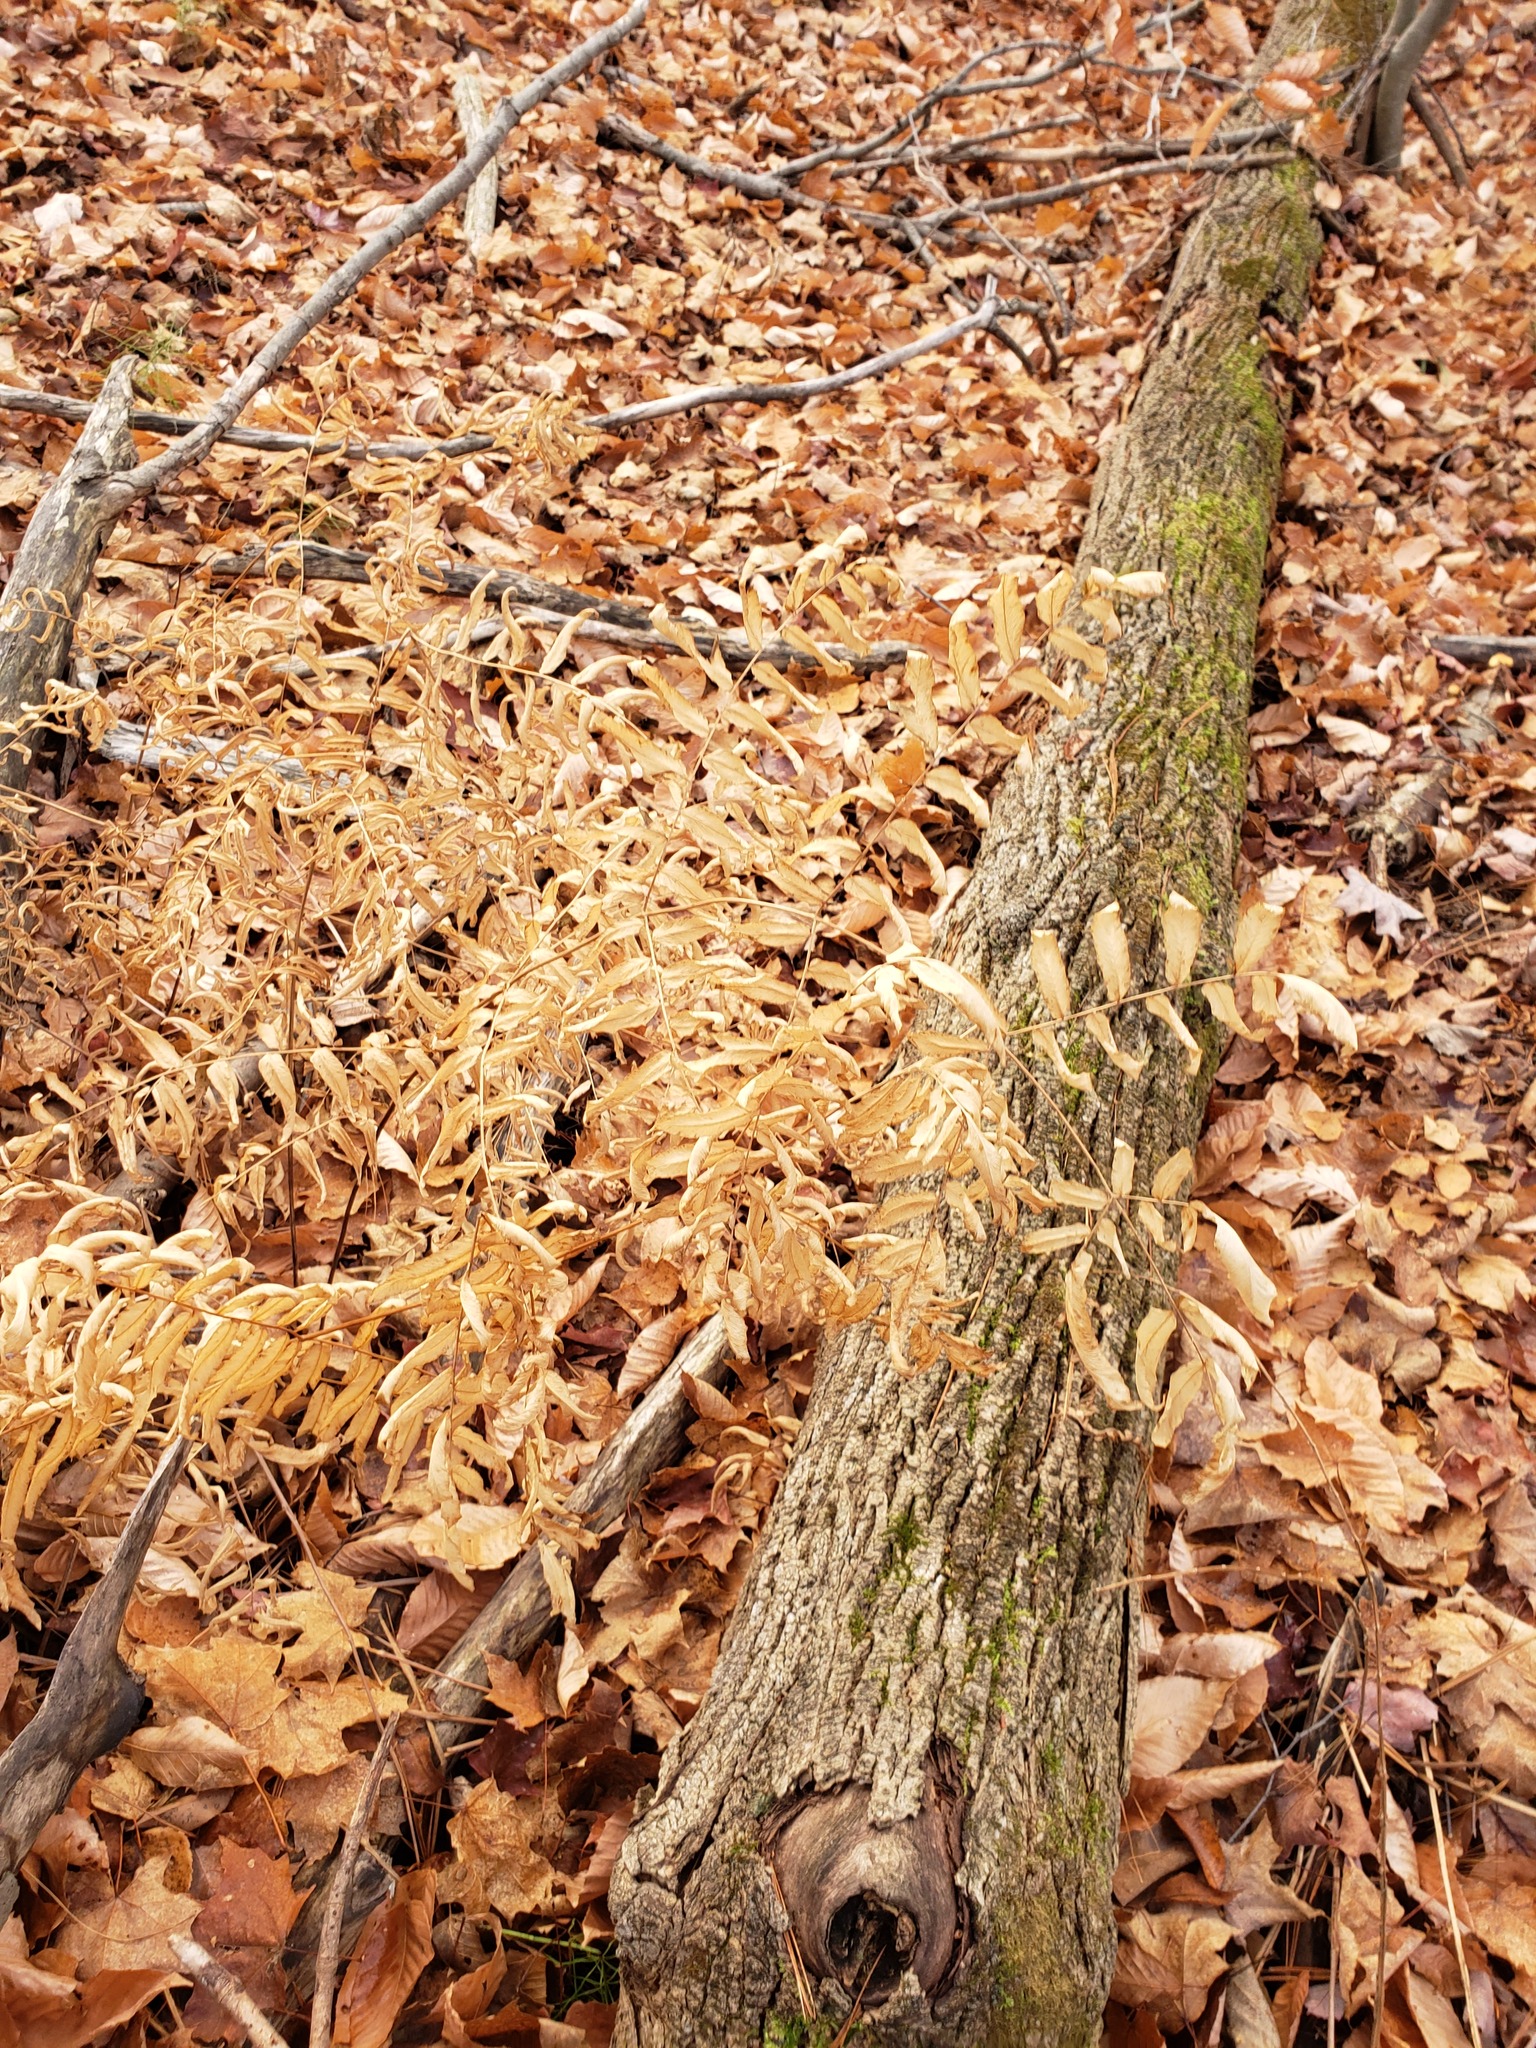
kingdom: Plantae
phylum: Tracheophyta
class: Polypodiopsida
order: Osmundales
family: Osmundaceae
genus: Osmunda
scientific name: Osmunda spectabilis
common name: American royal fern
